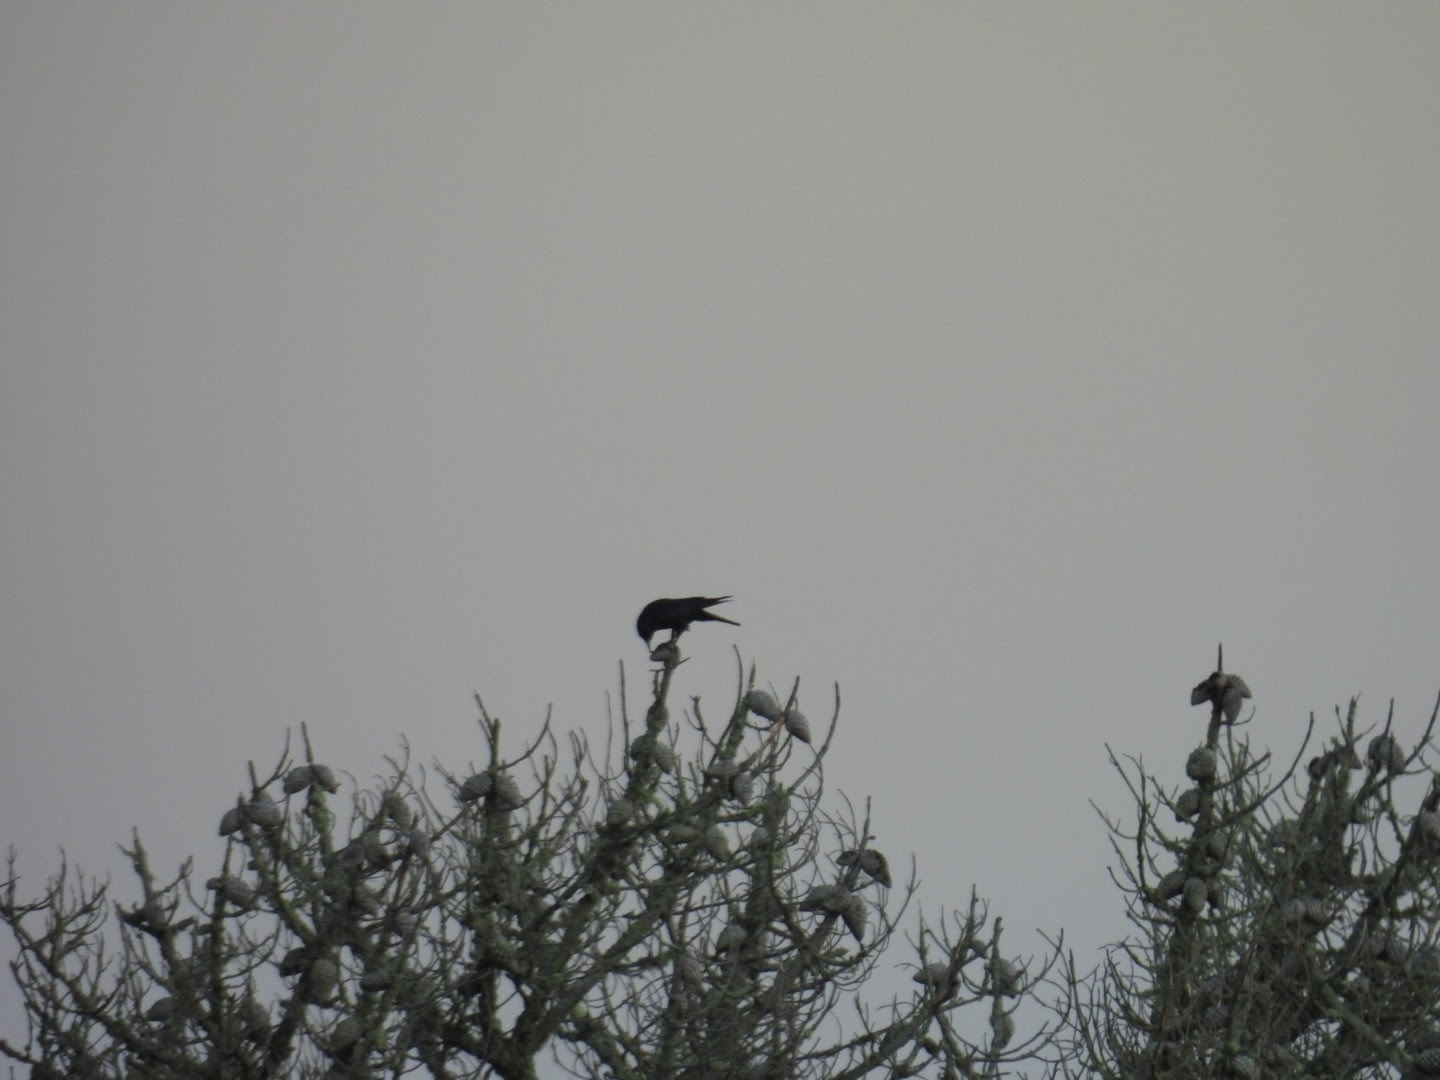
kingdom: Animalia
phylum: Chordata
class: Aves
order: Passeriformes
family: Corvidae
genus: Corvus
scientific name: Corvus brachyrhynchos
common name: American crow
